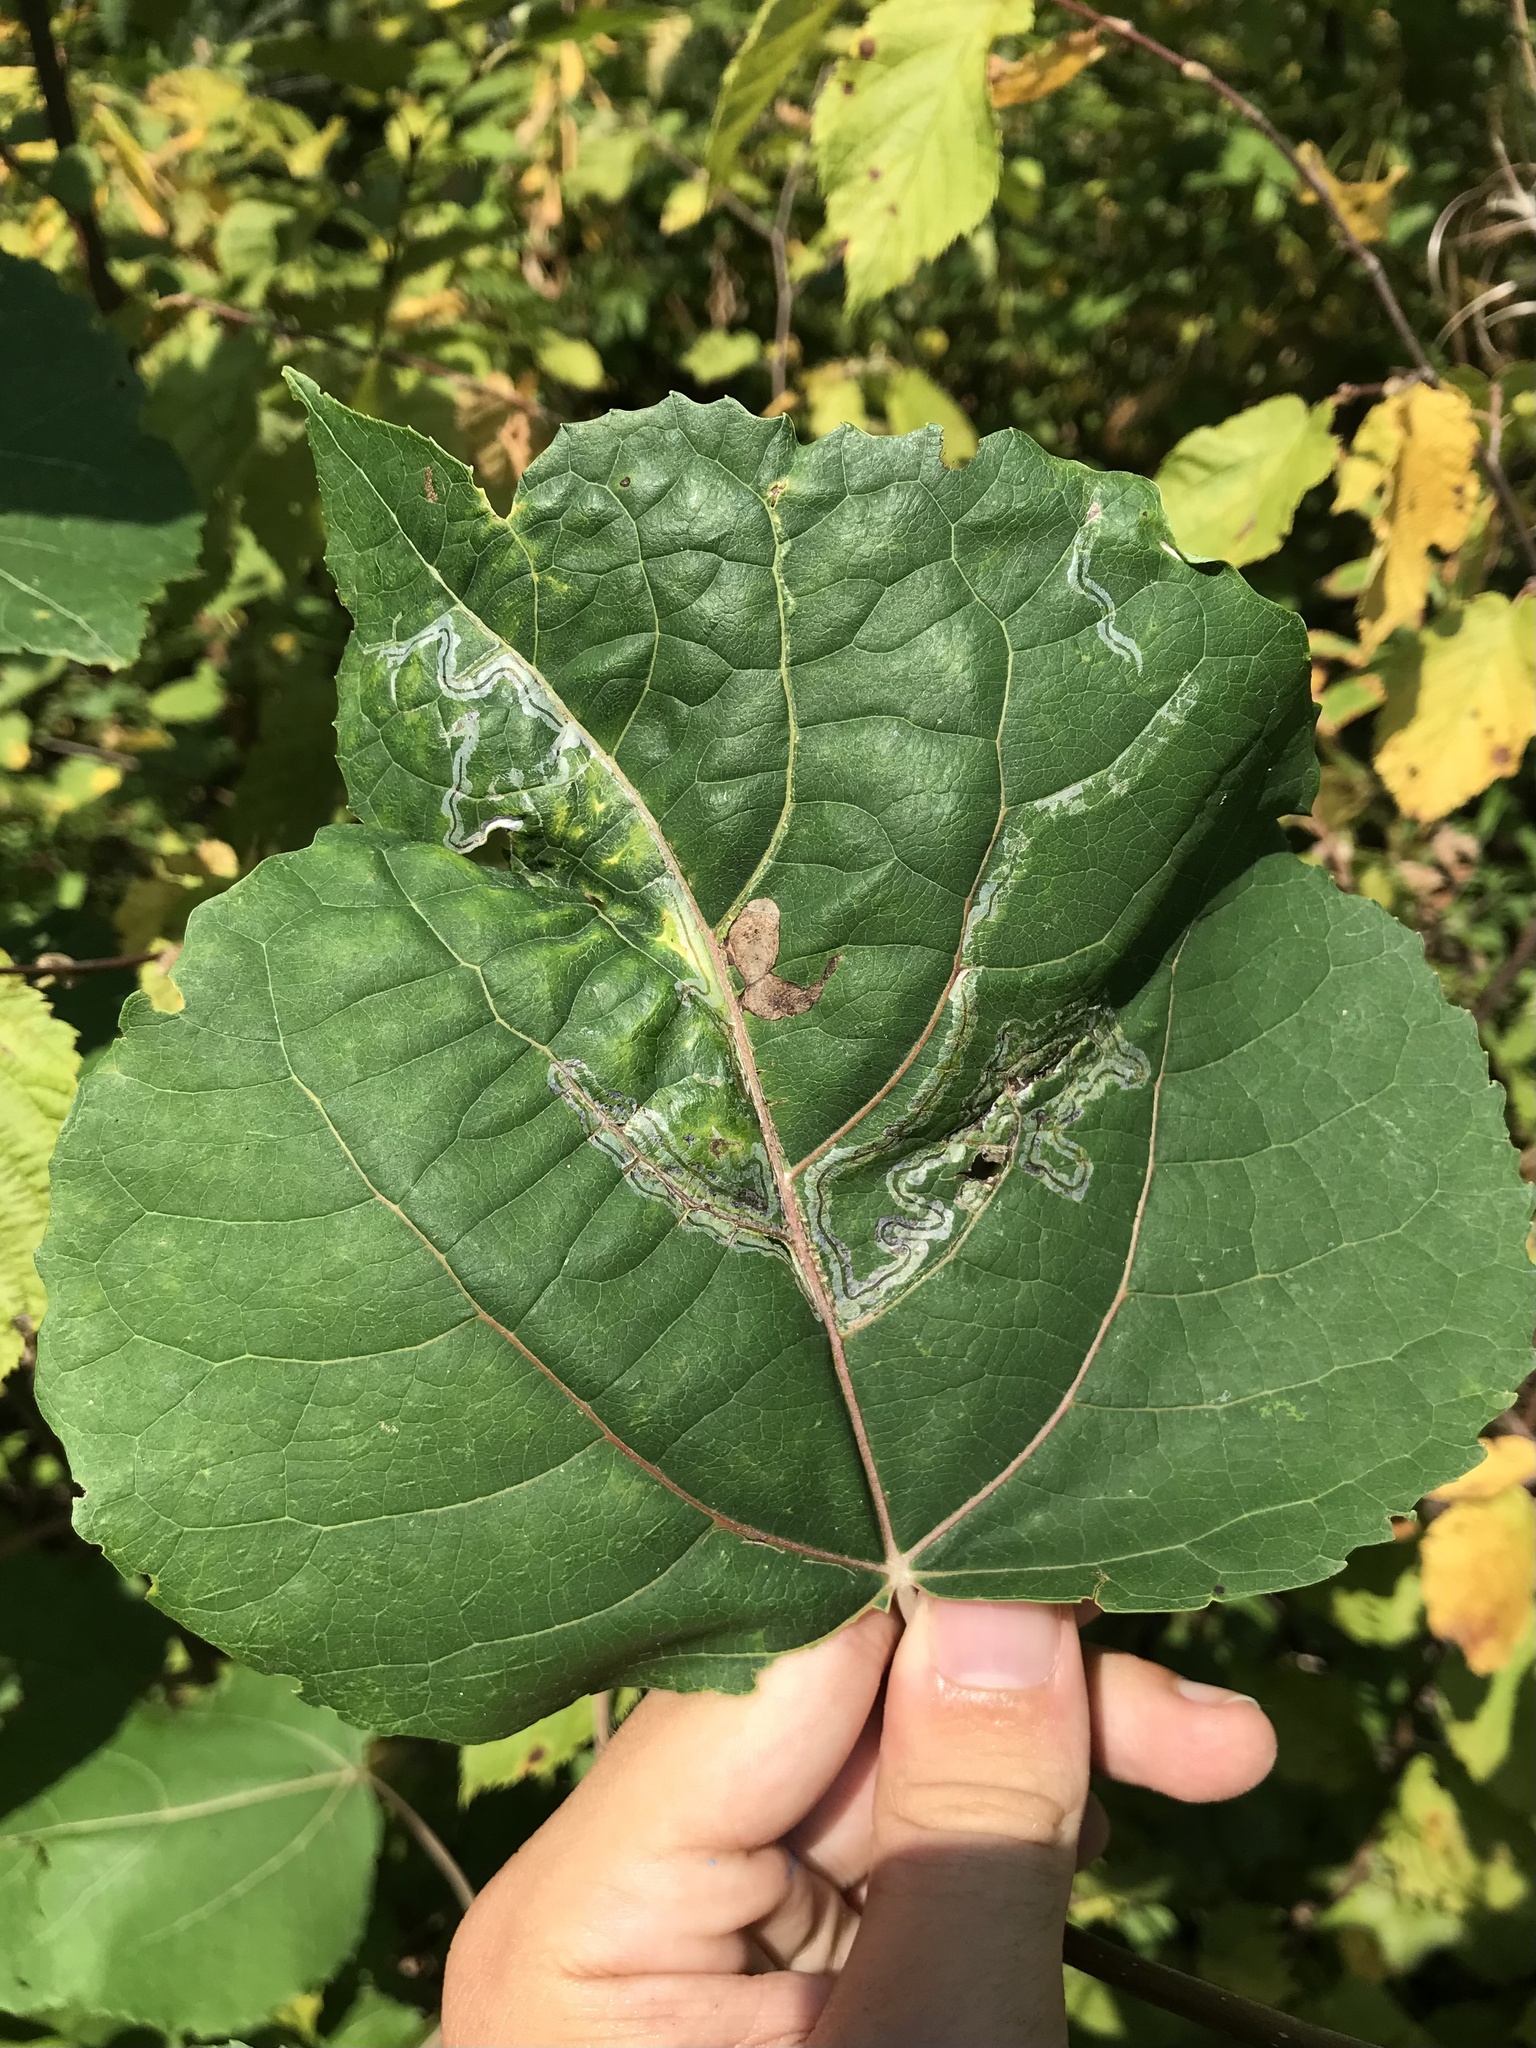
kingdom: Animalia
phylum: Arthropoda
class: Insecta
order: Lepidoptera
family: Gracillariidae
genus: Phyllocnistis
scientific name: Phyllocnistis populiella
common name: Aspen serpentine leafminer moth
